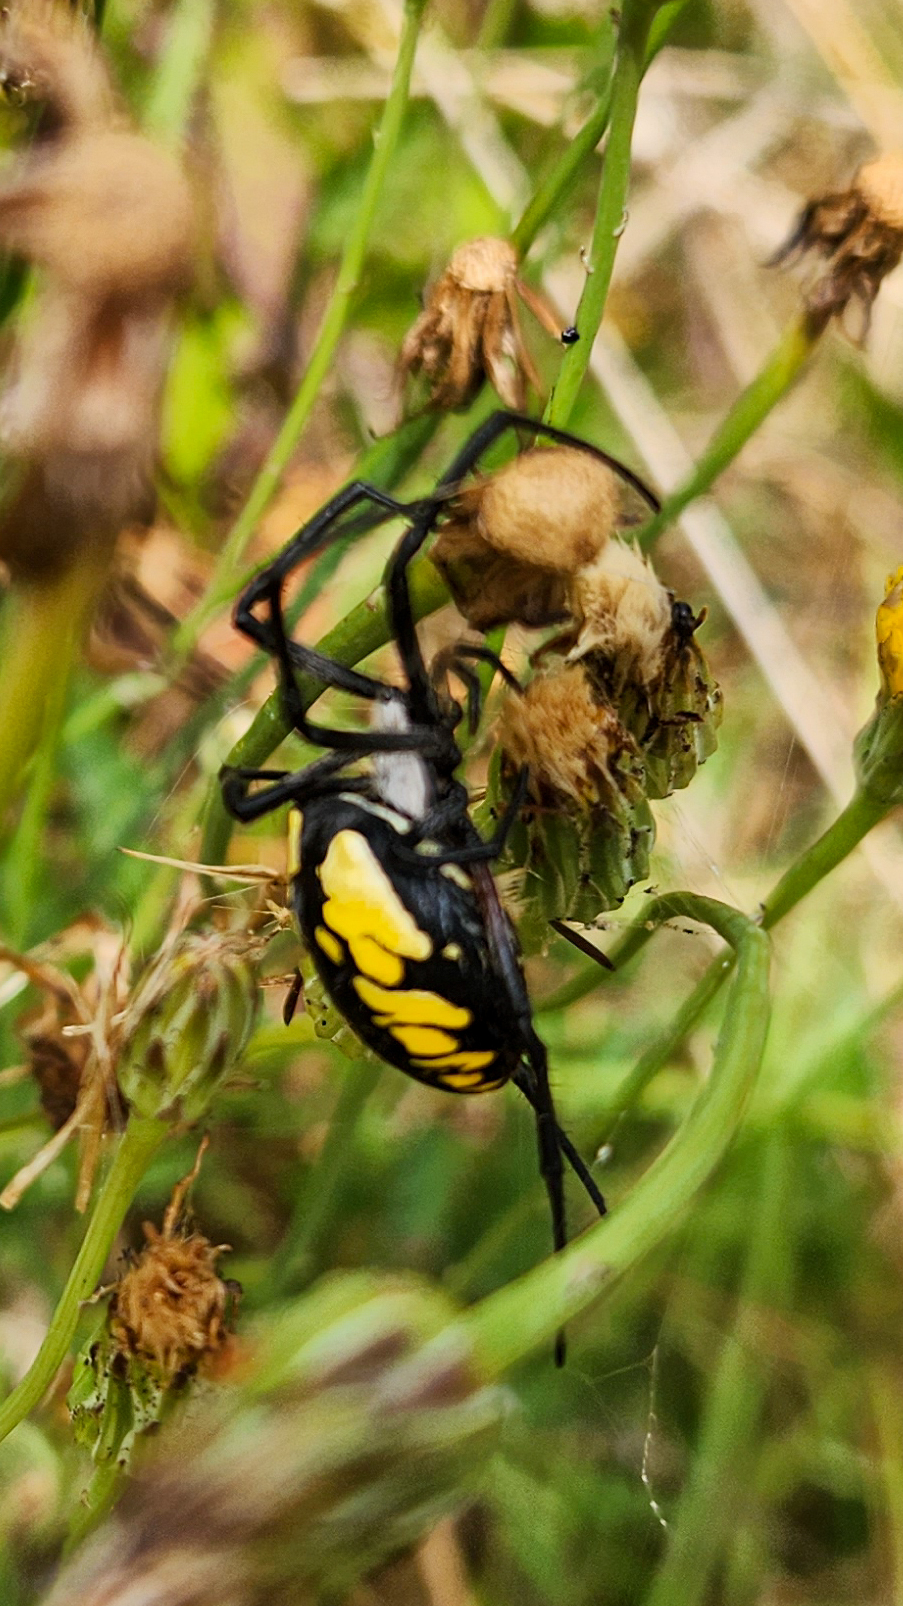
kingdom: Animalia
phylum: Arthropoda
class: Arachnida
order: Araneae
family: Araneidae
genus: Argiope
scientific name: Argiope aurantia
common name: Orb weavers
